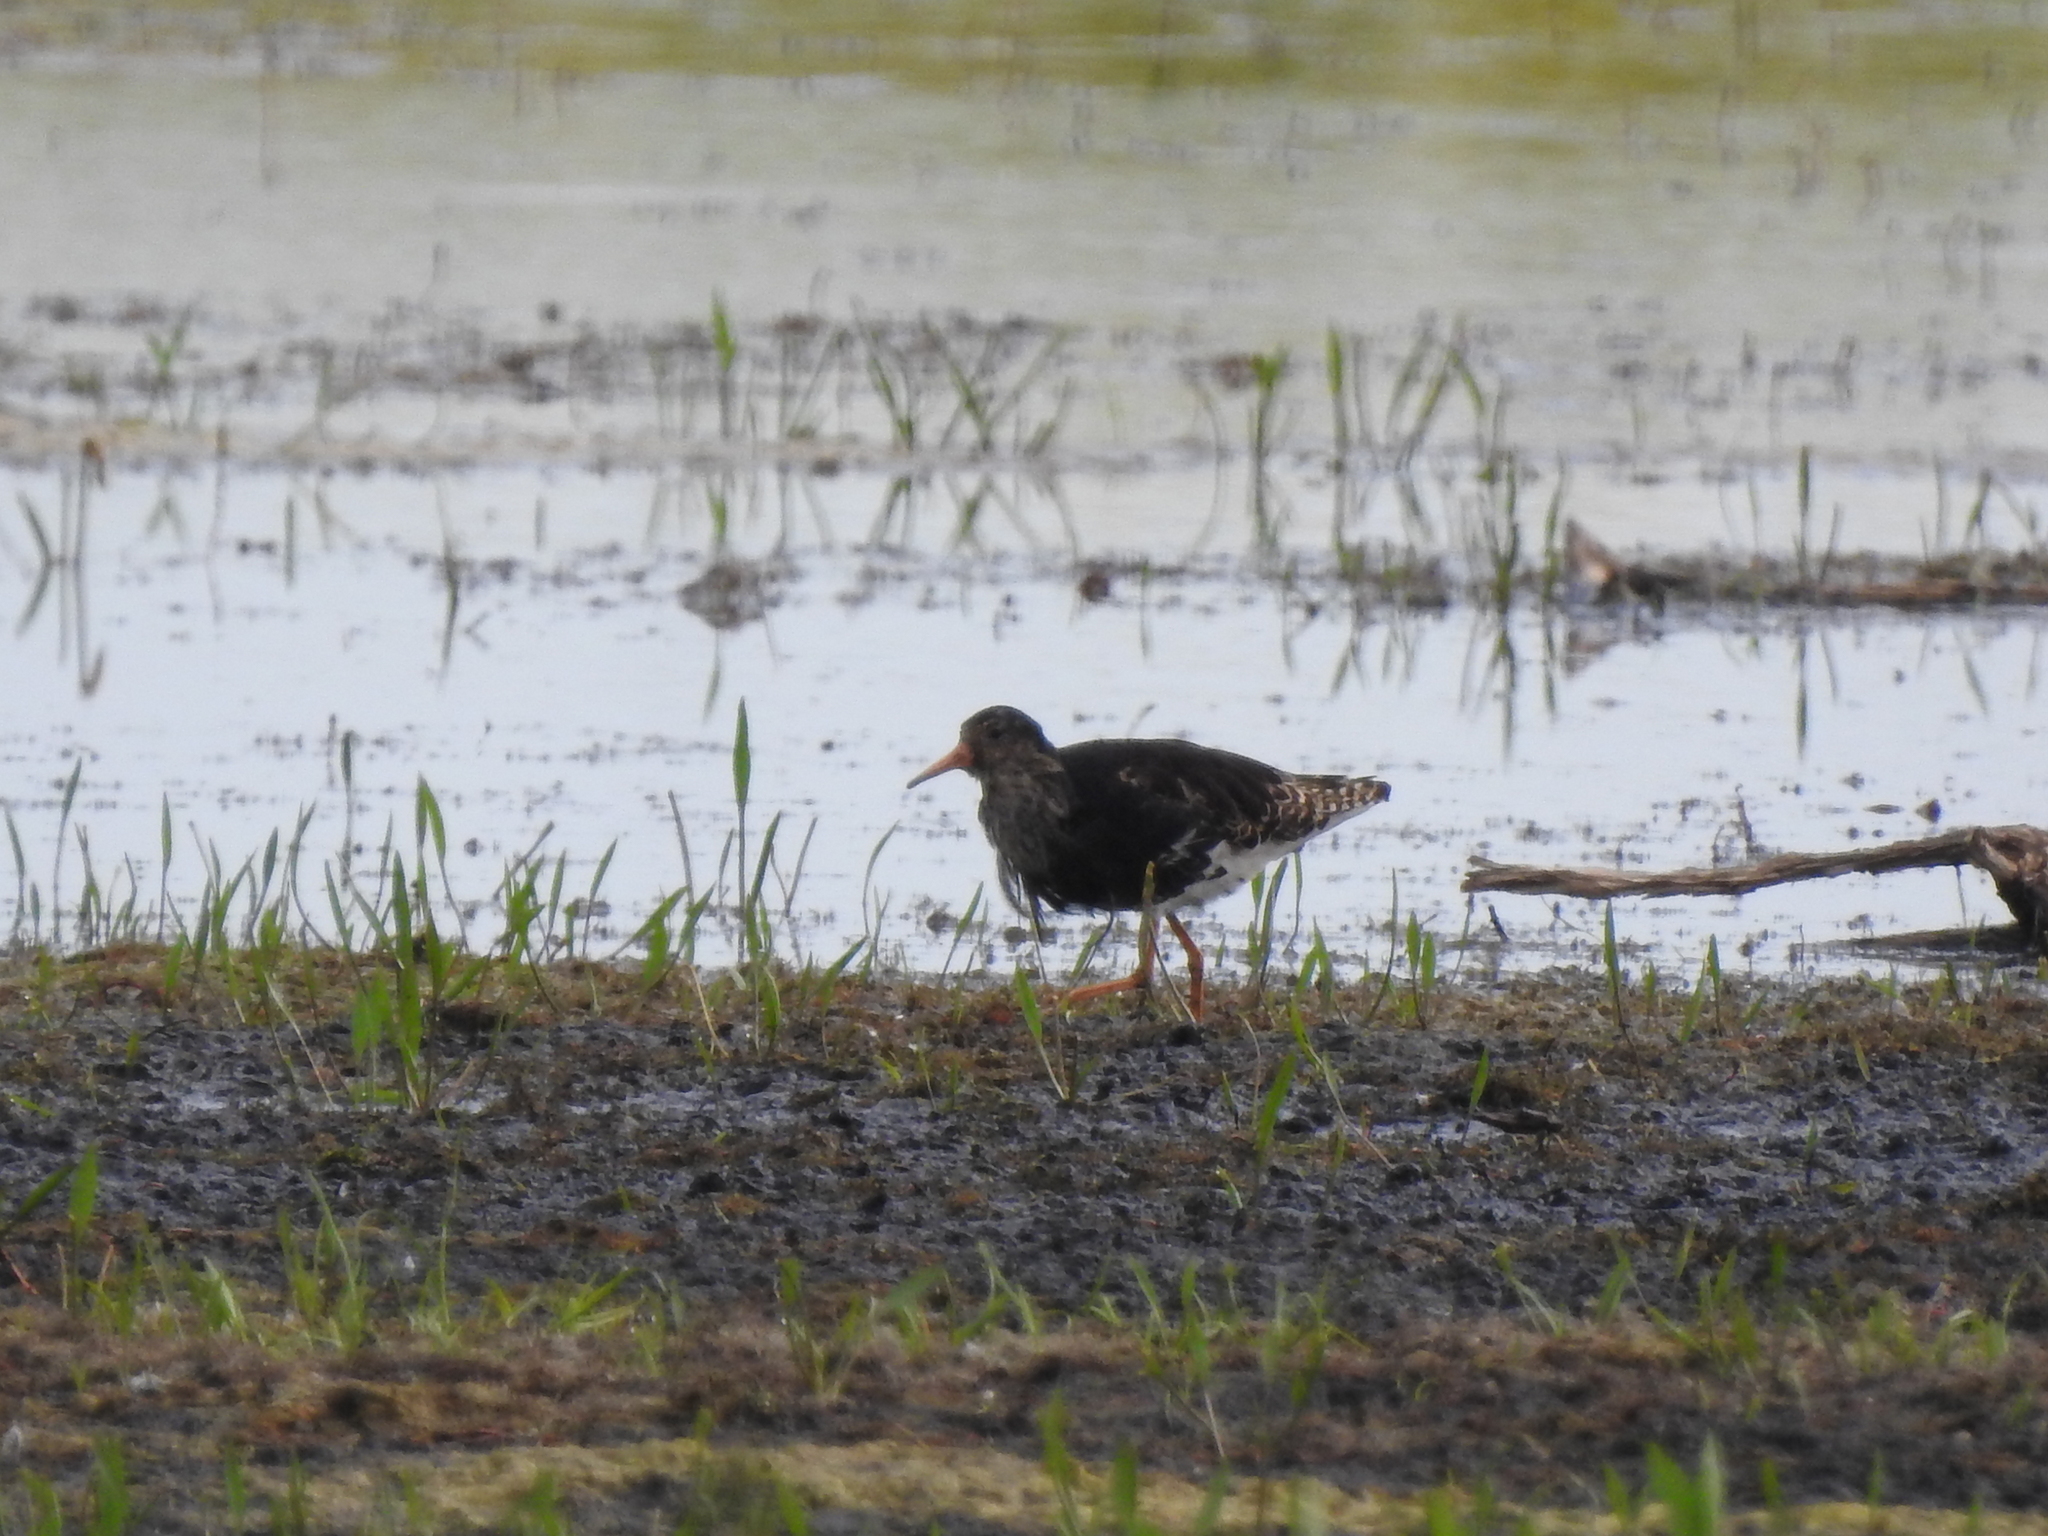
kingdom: Animalia
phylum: Chordata
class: Aves
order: Charadriiformes
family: Scolopacidae
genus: Calidris
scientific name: Calidris pugnax
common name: Ruff
